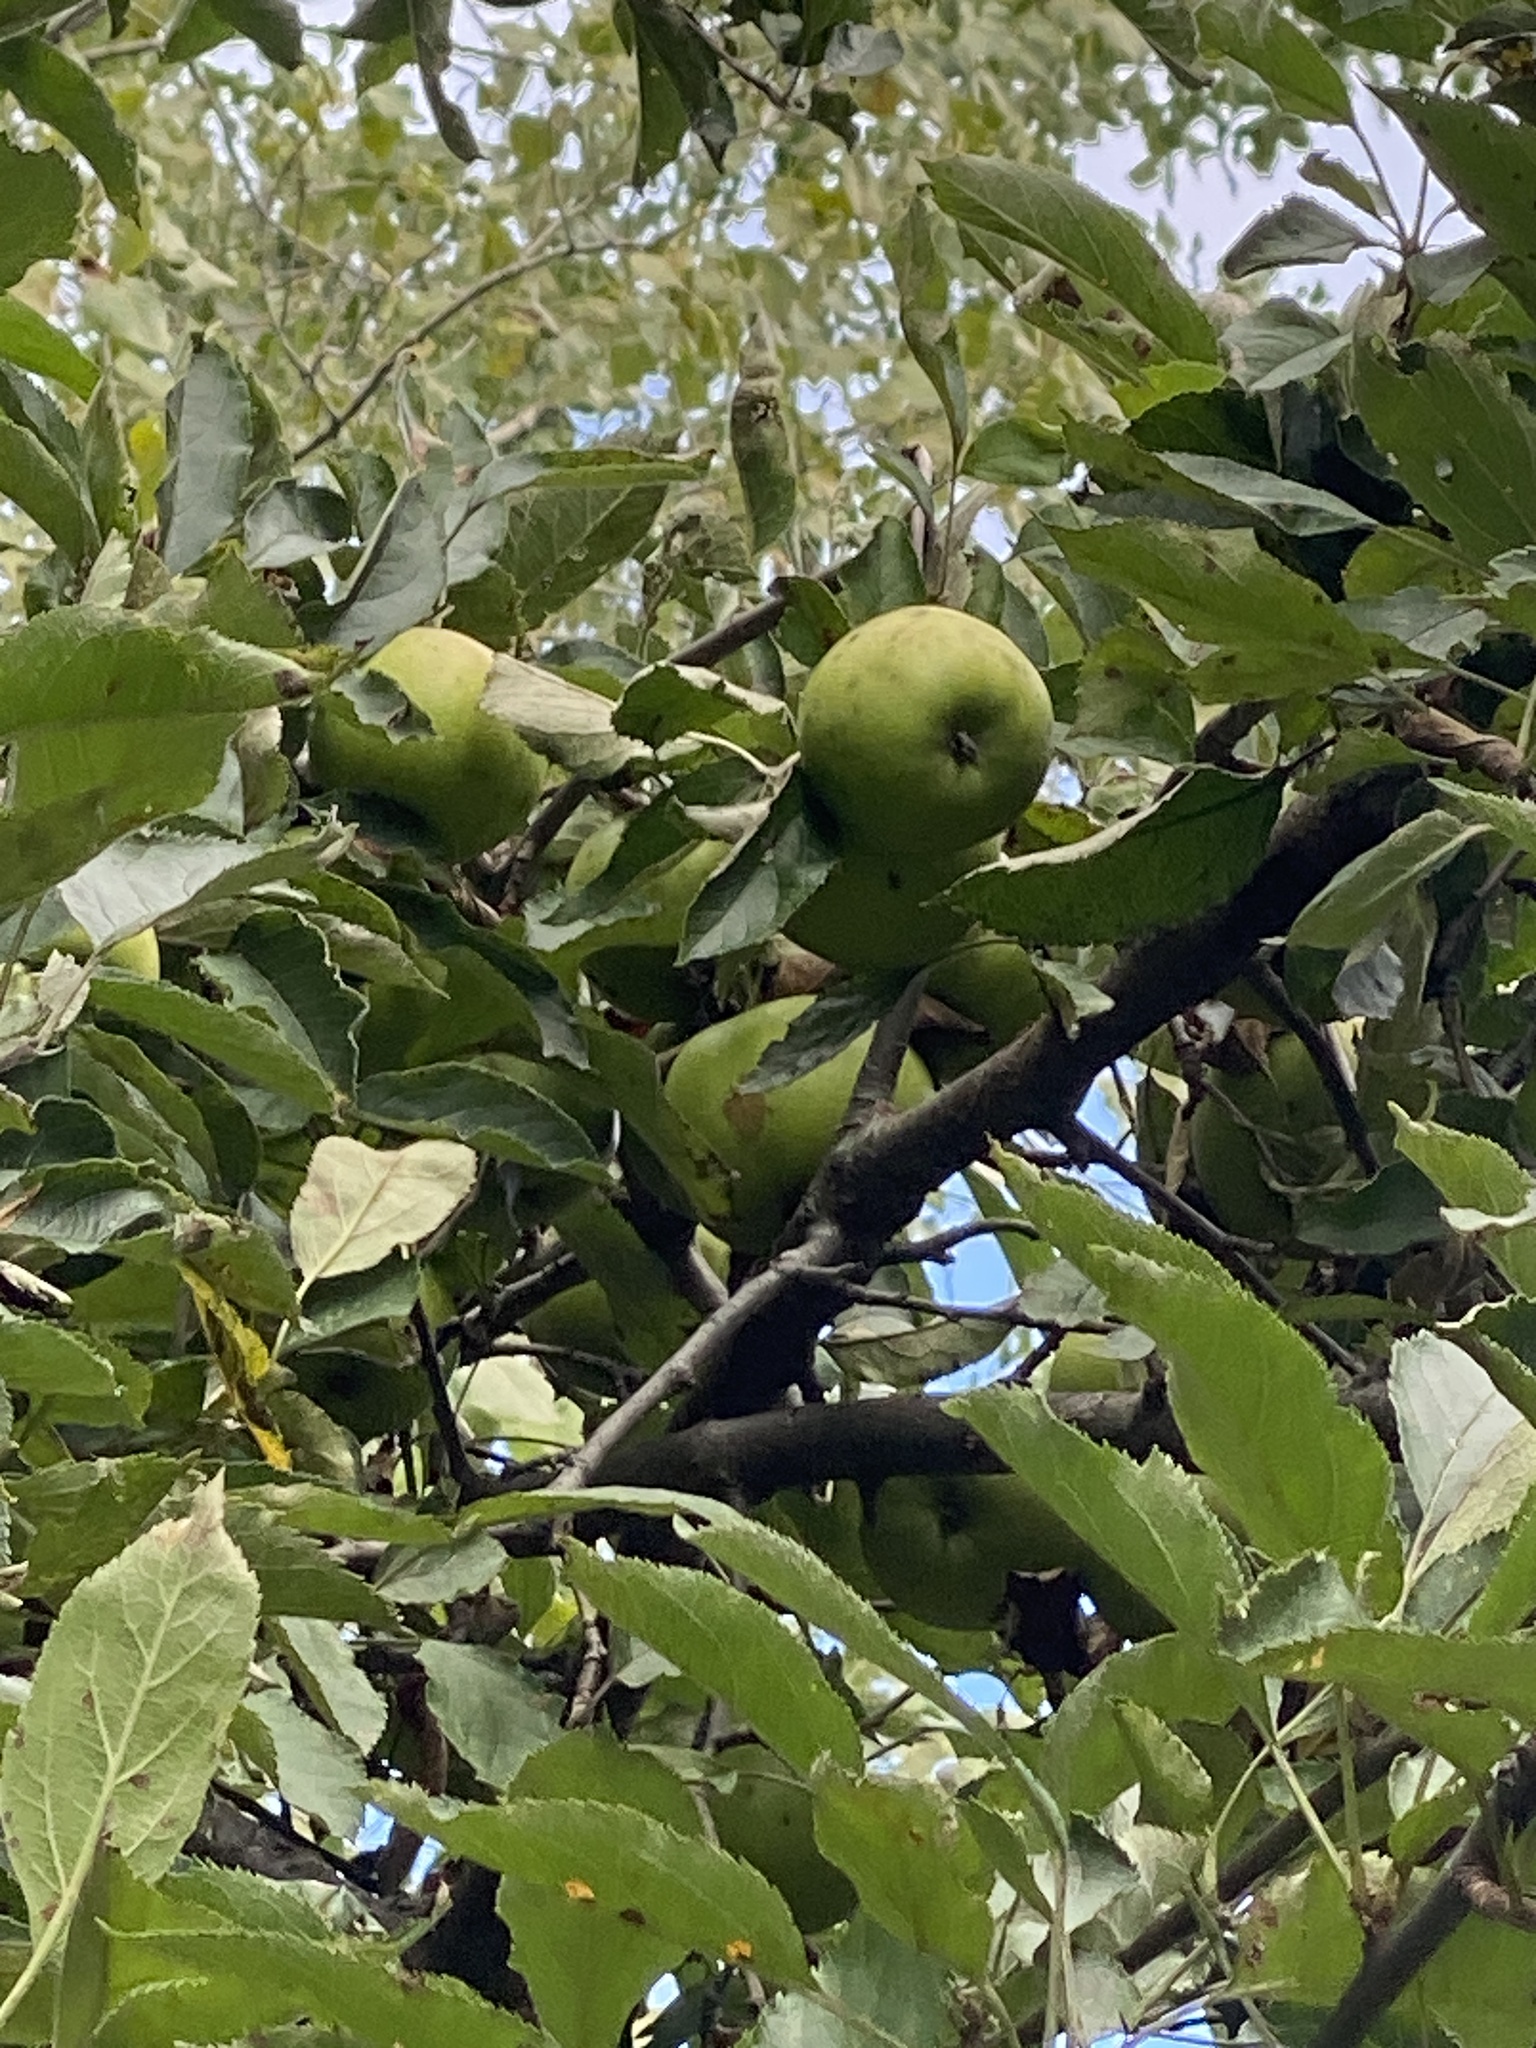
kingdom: Plantae
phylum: Tracheophyta
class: Magnoliopsida
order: Rosales
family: Rosaceae
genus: Malus
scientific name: Malus domestica
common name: Apple
